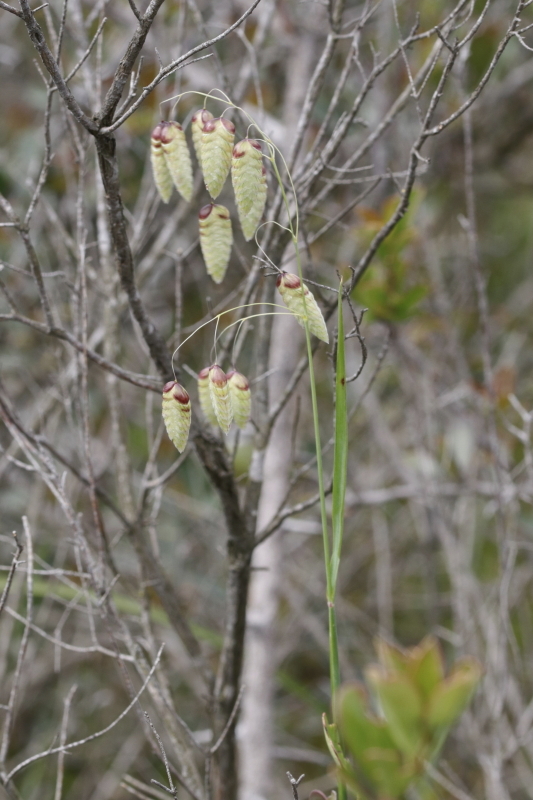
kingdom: Plantae
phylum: Tracheophyta
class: Liliopsida
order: Poales
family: Poaceae
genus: Briza
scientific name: Briza maxima
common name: Big quakinggrass
